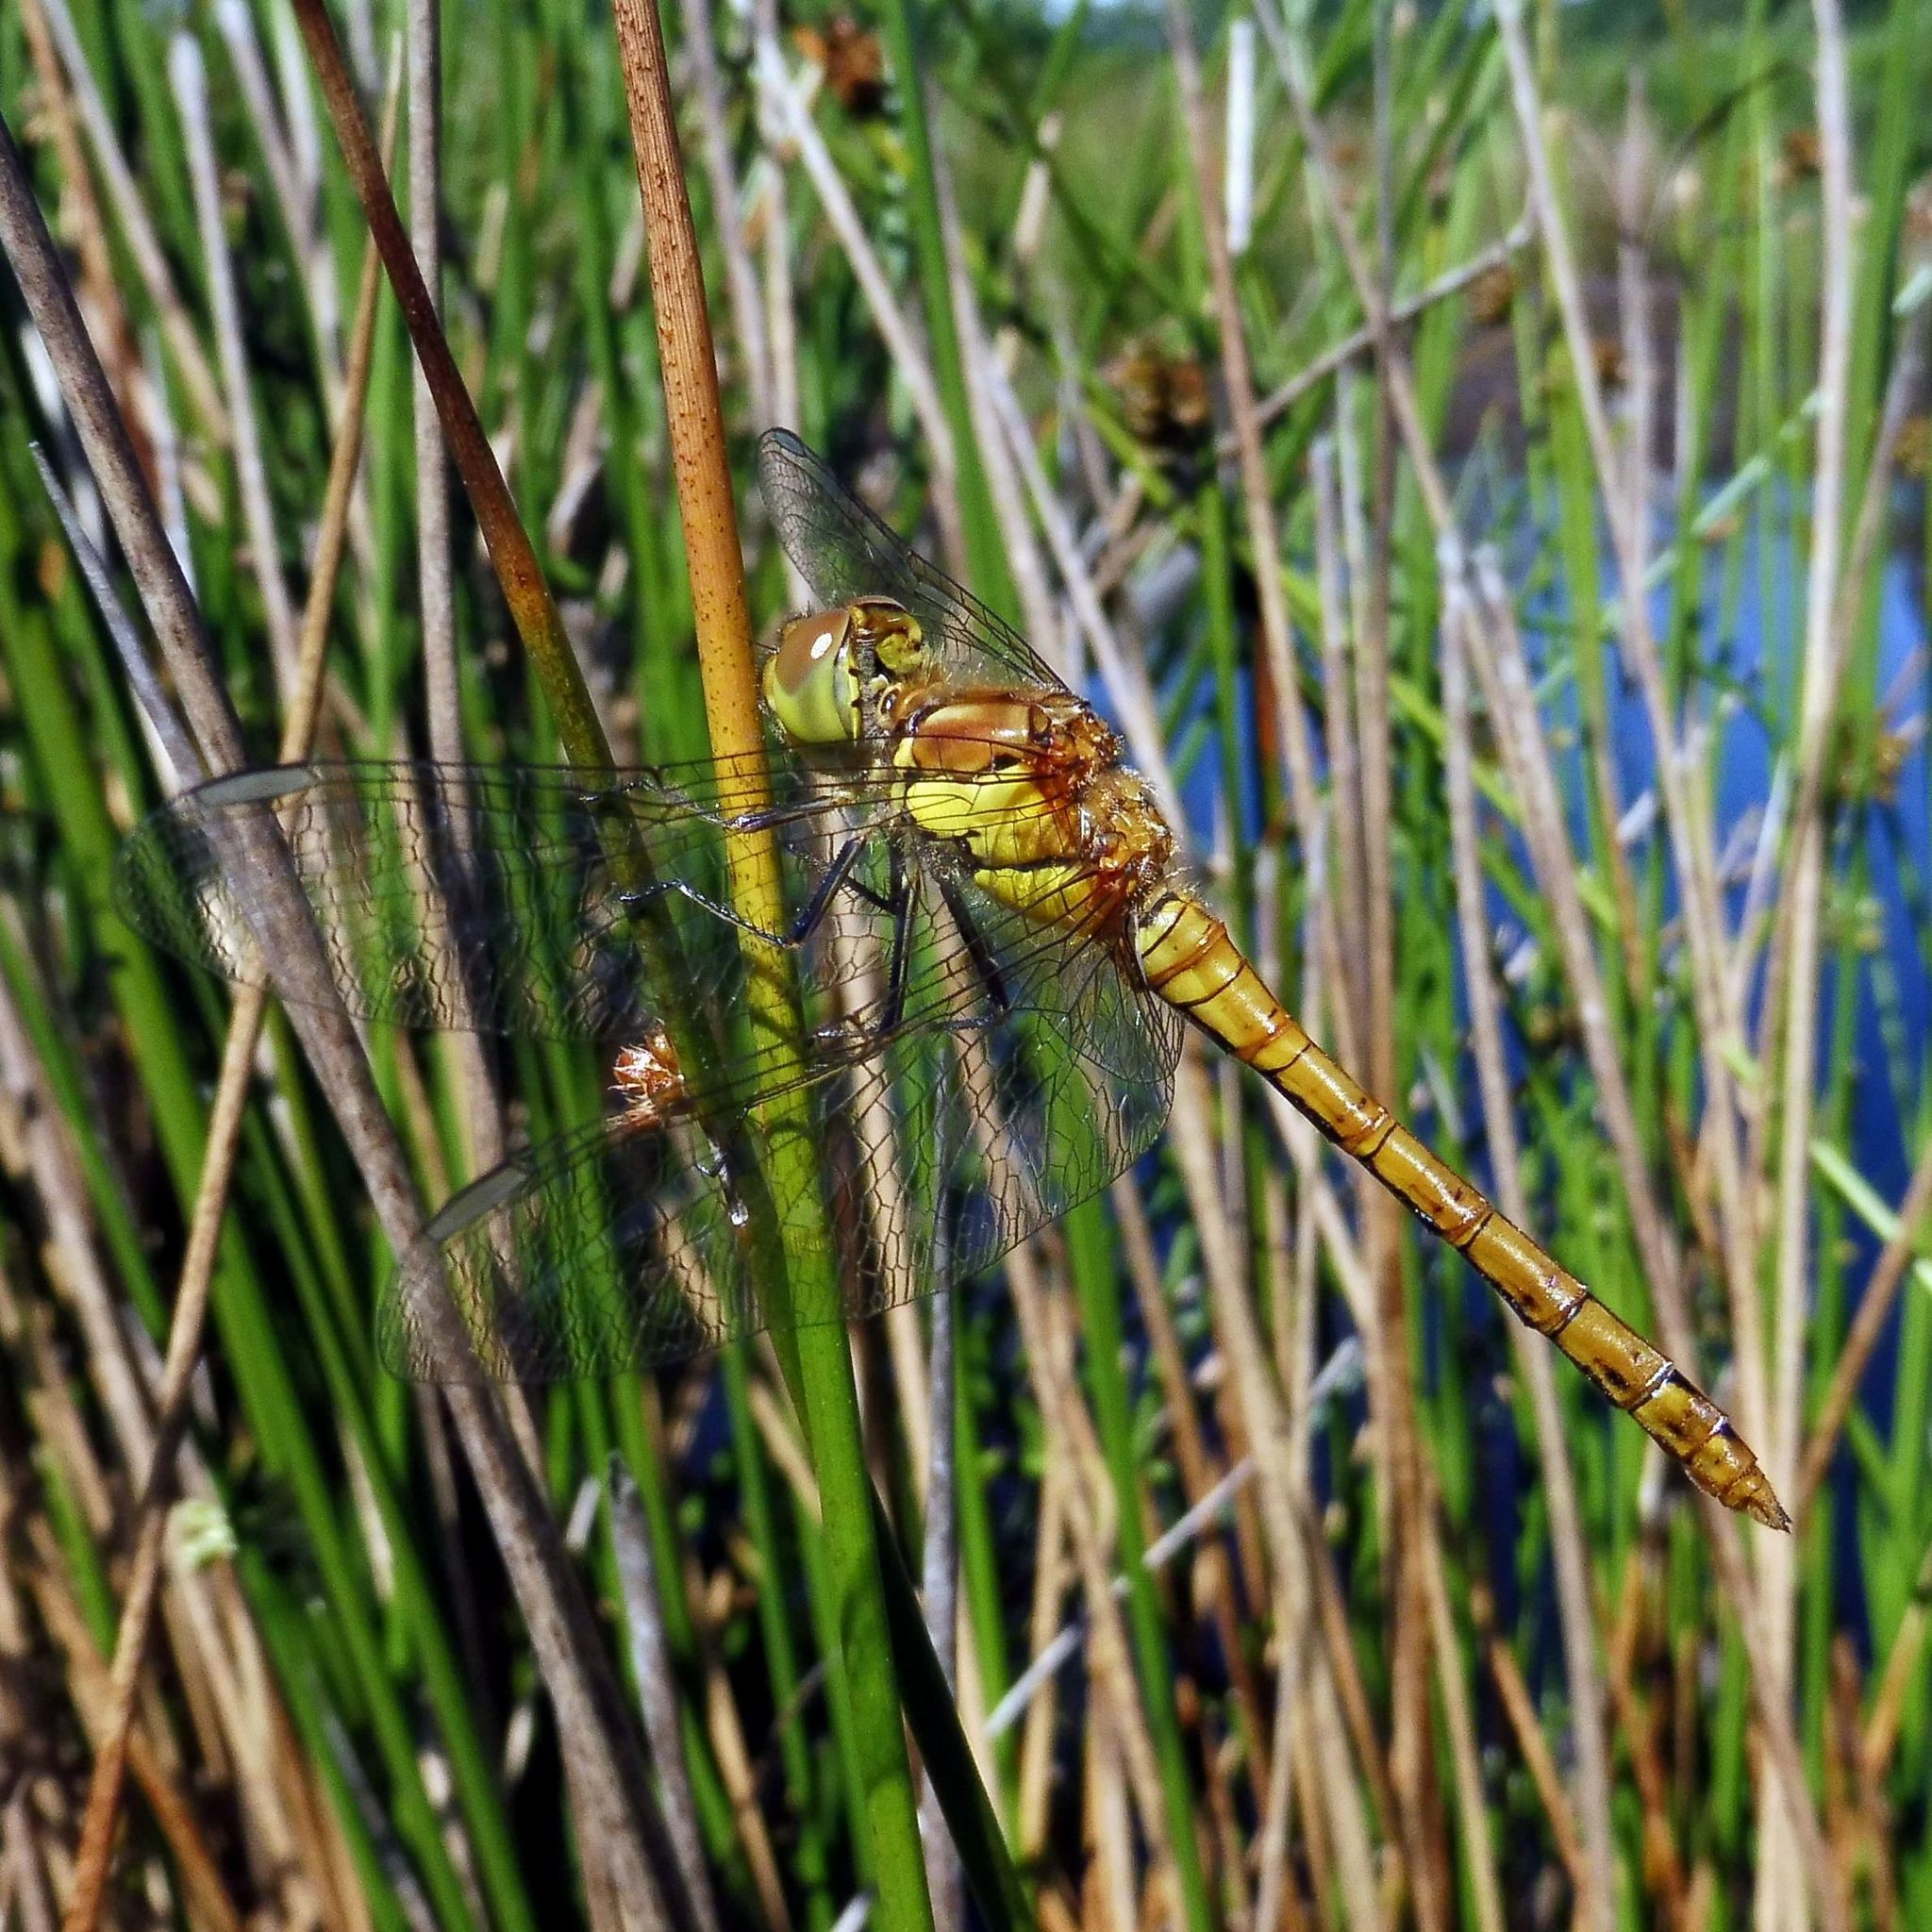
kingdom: Animalia
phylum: Arthropoda
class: Insecta
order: Odonata
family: Libellulidae
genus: Sympetrum
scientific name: Sympetrum striolatum
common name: Common darter
